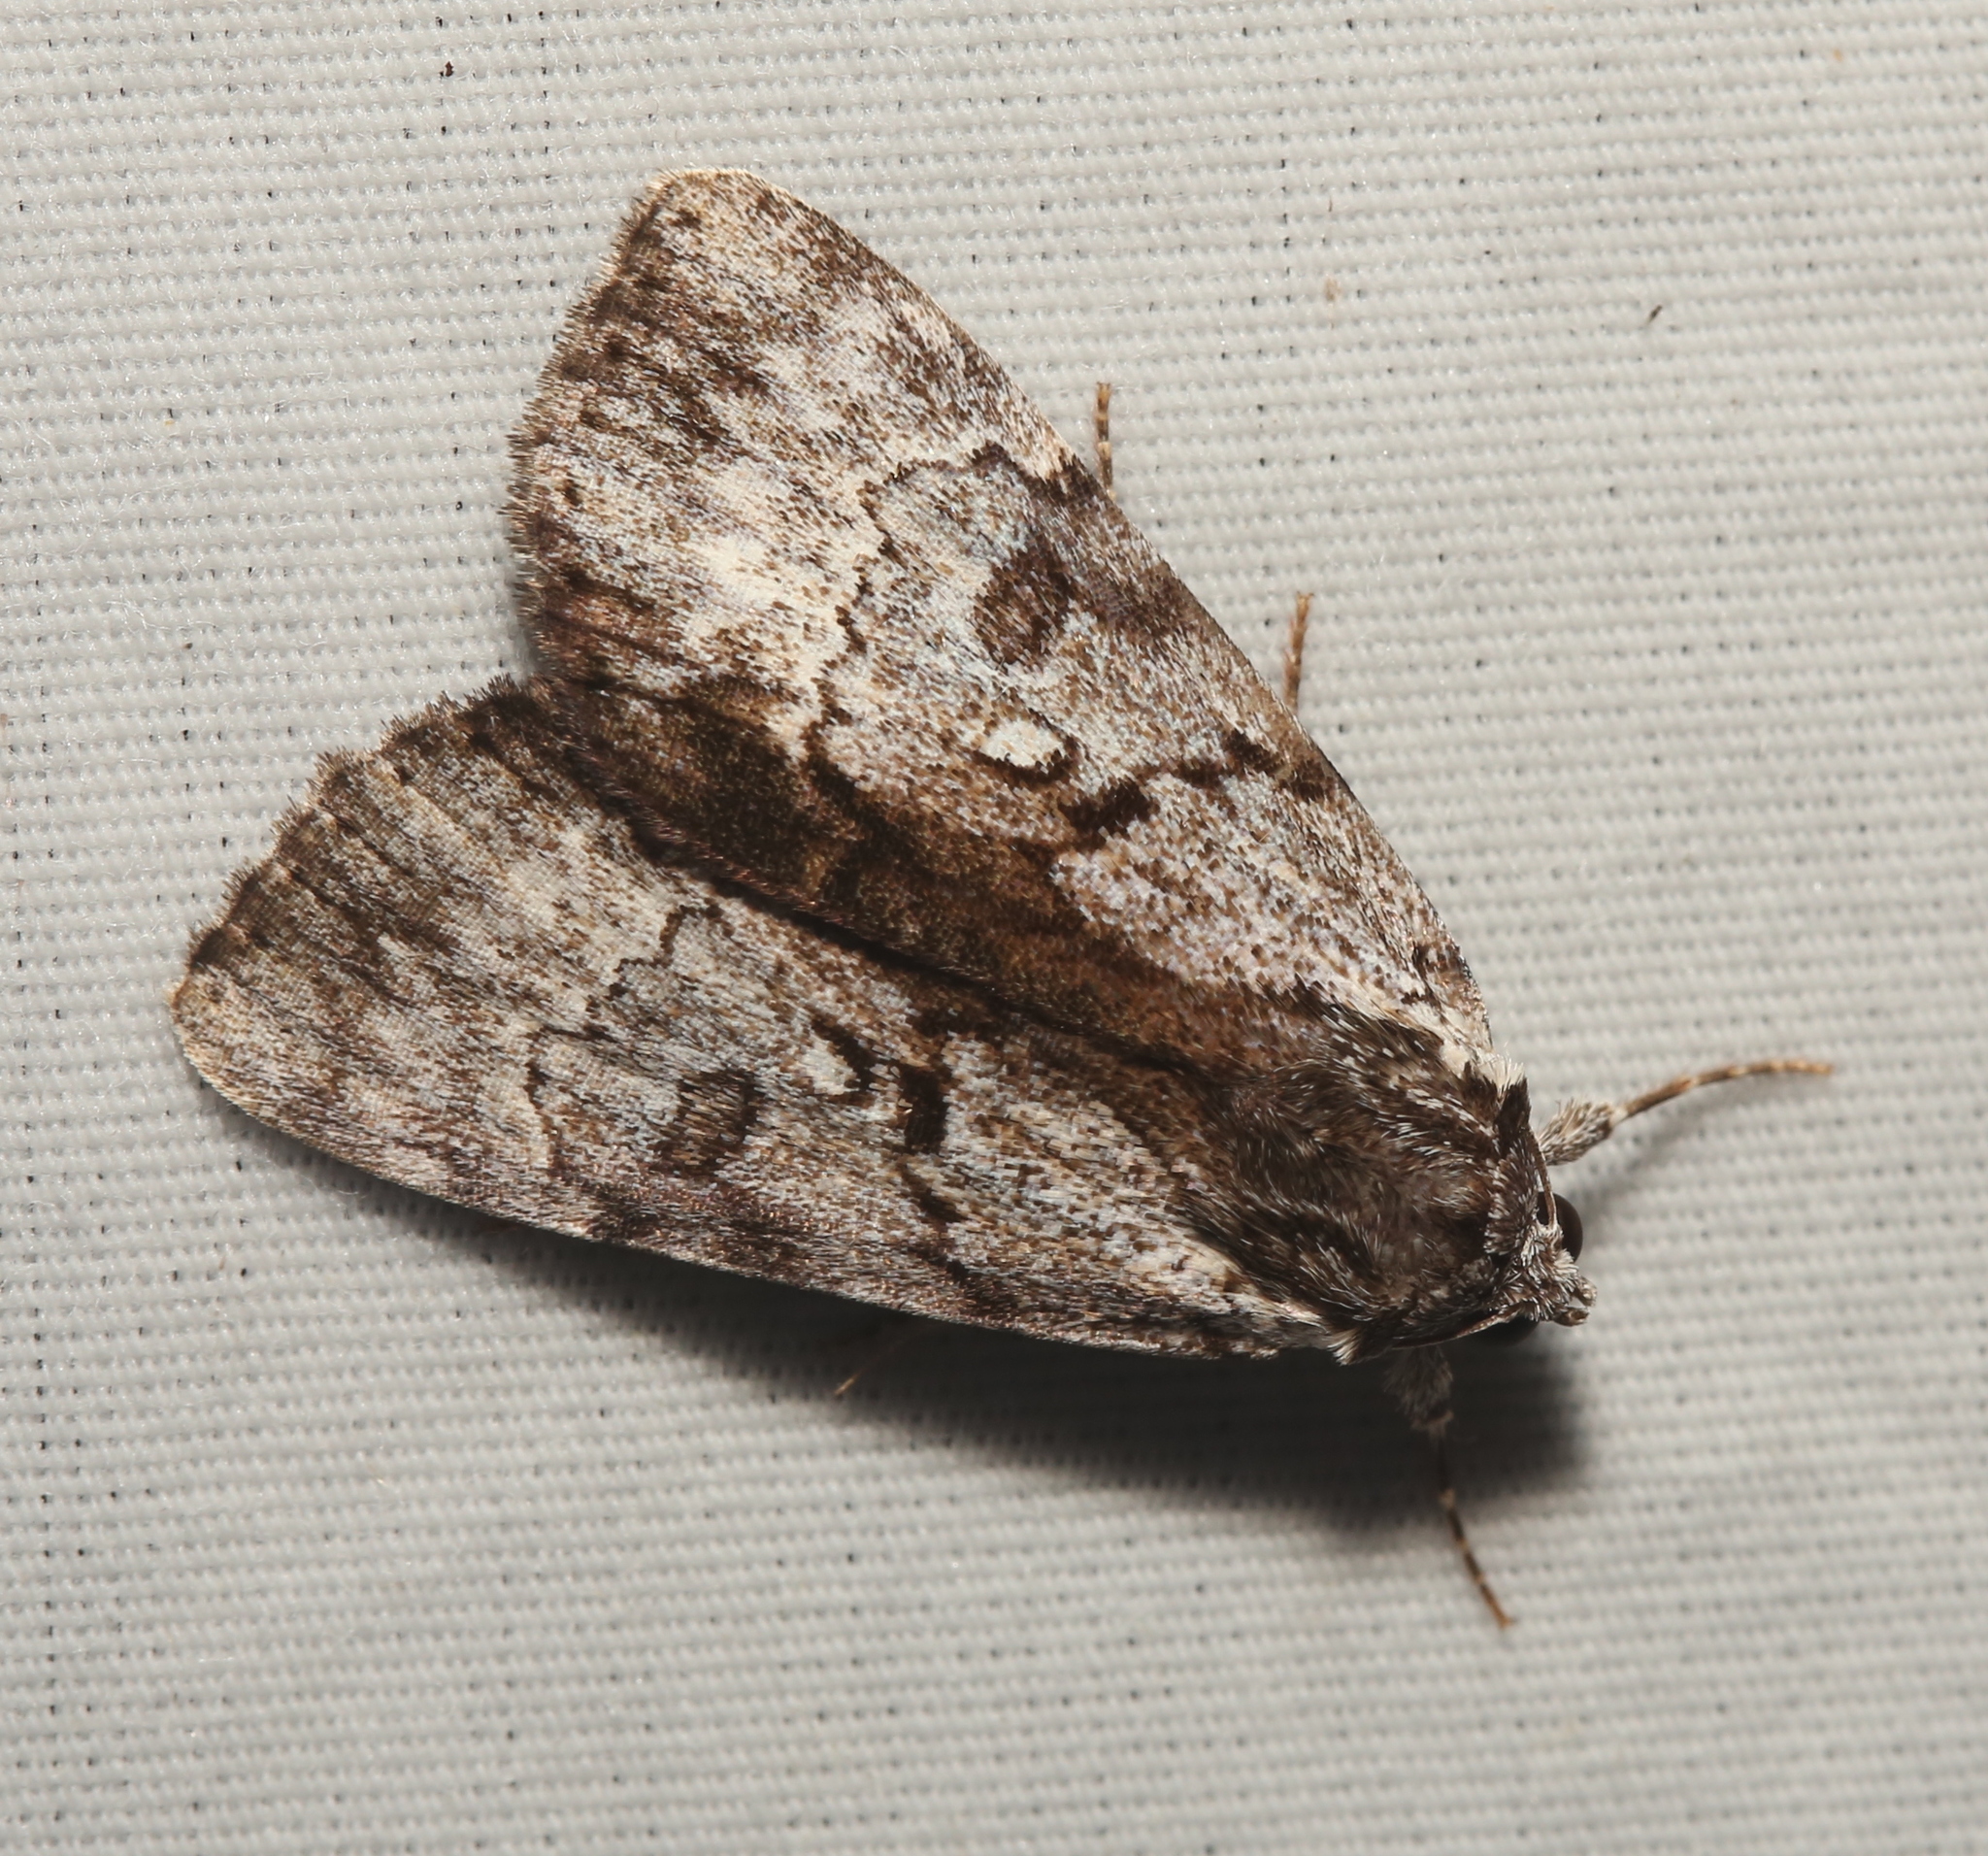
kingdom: Animalia
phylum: Arthropoda
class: Insecta
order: Lepidoptera
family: Erebidae
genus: Catocala
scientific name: Catocala andromedae
